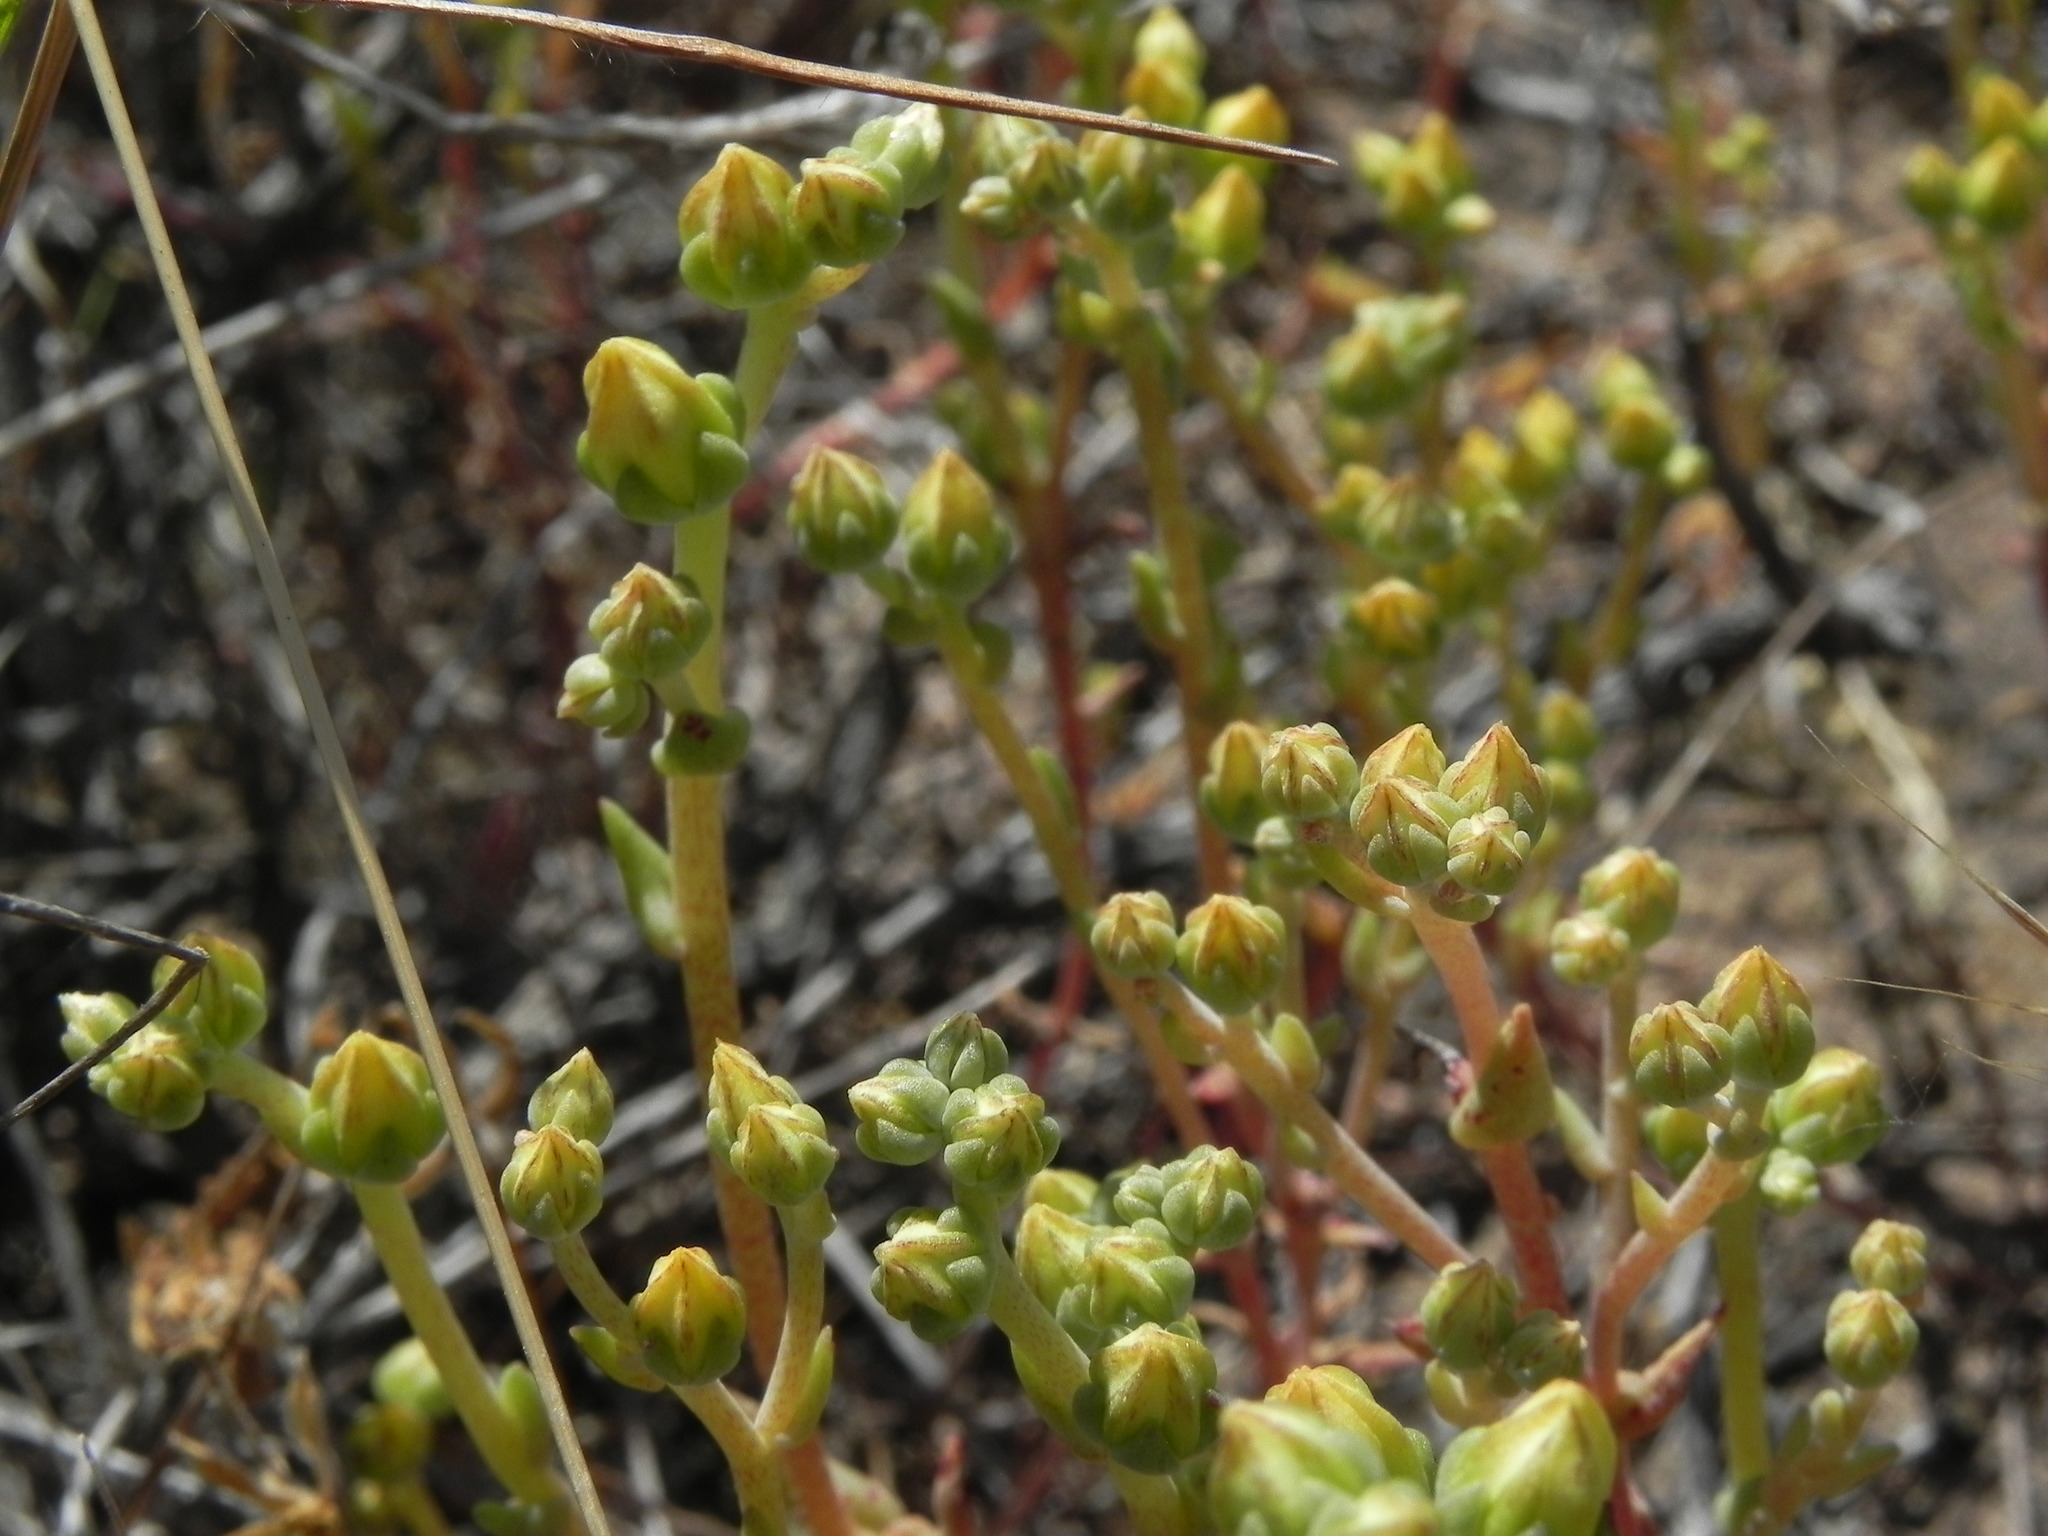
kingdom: Plantae
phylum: Tracheophyta
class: Magnoliopsida
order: Saxifragales
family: Crassulaceae
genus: Dudleya
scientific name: Dudleya variegata
